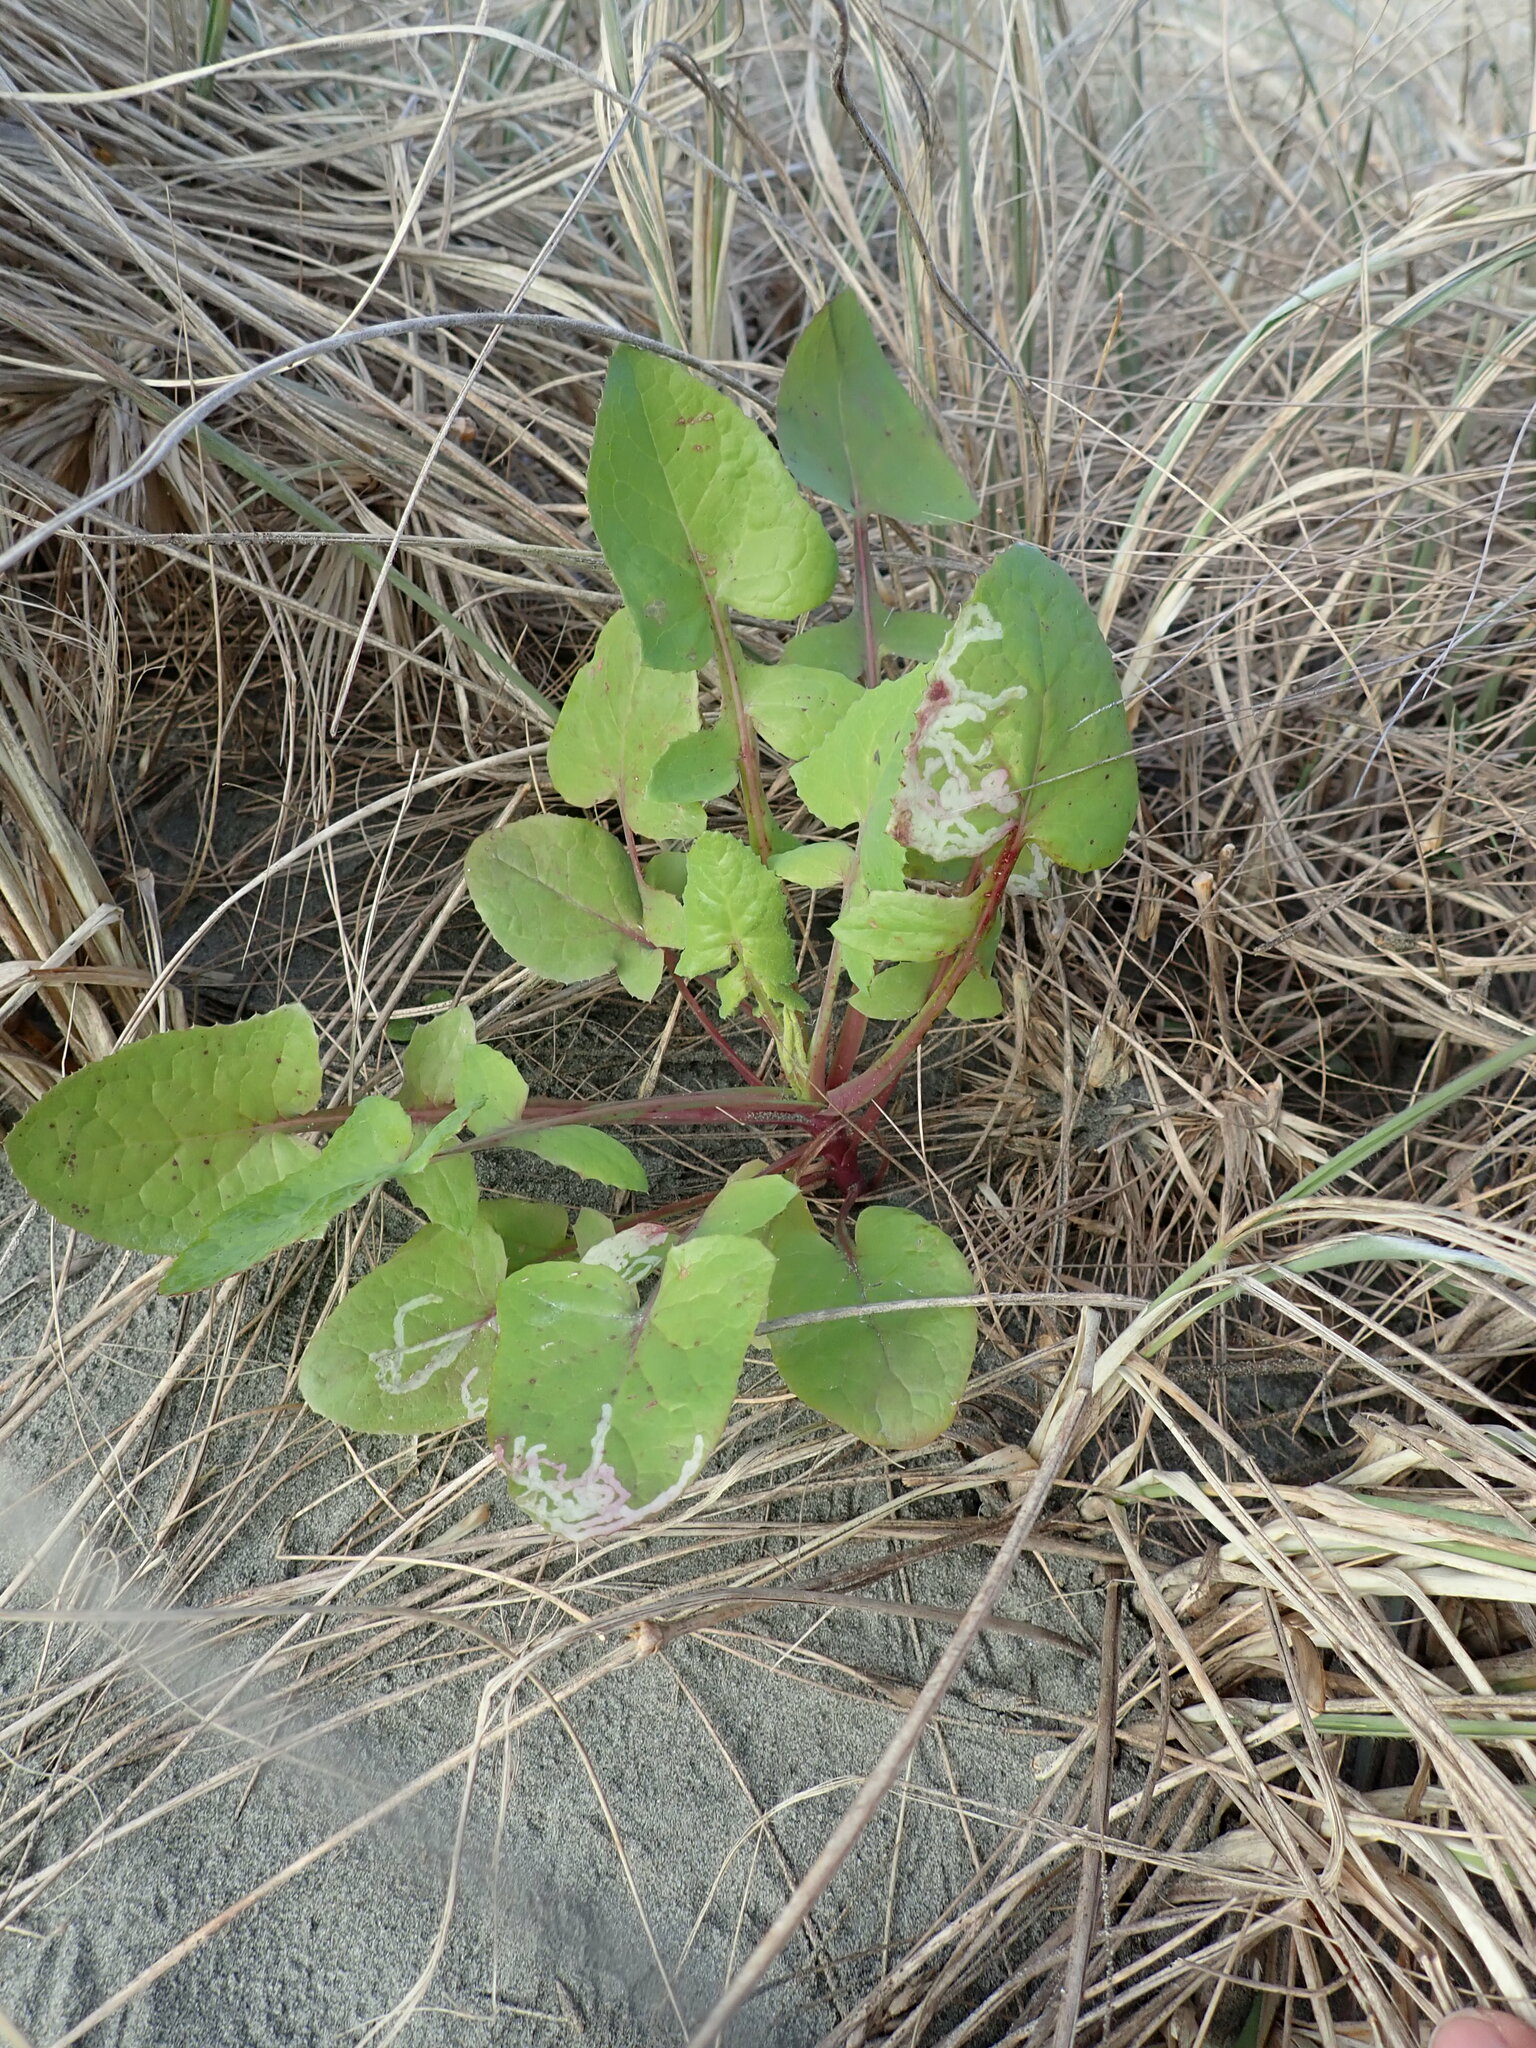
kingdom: Plantae
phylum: Tracheophyta
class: Magnoliopsida
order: Asterales
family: Asteraceae
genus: Sonchus
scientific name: Sonchus oleraceus
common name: Common sowthistle
